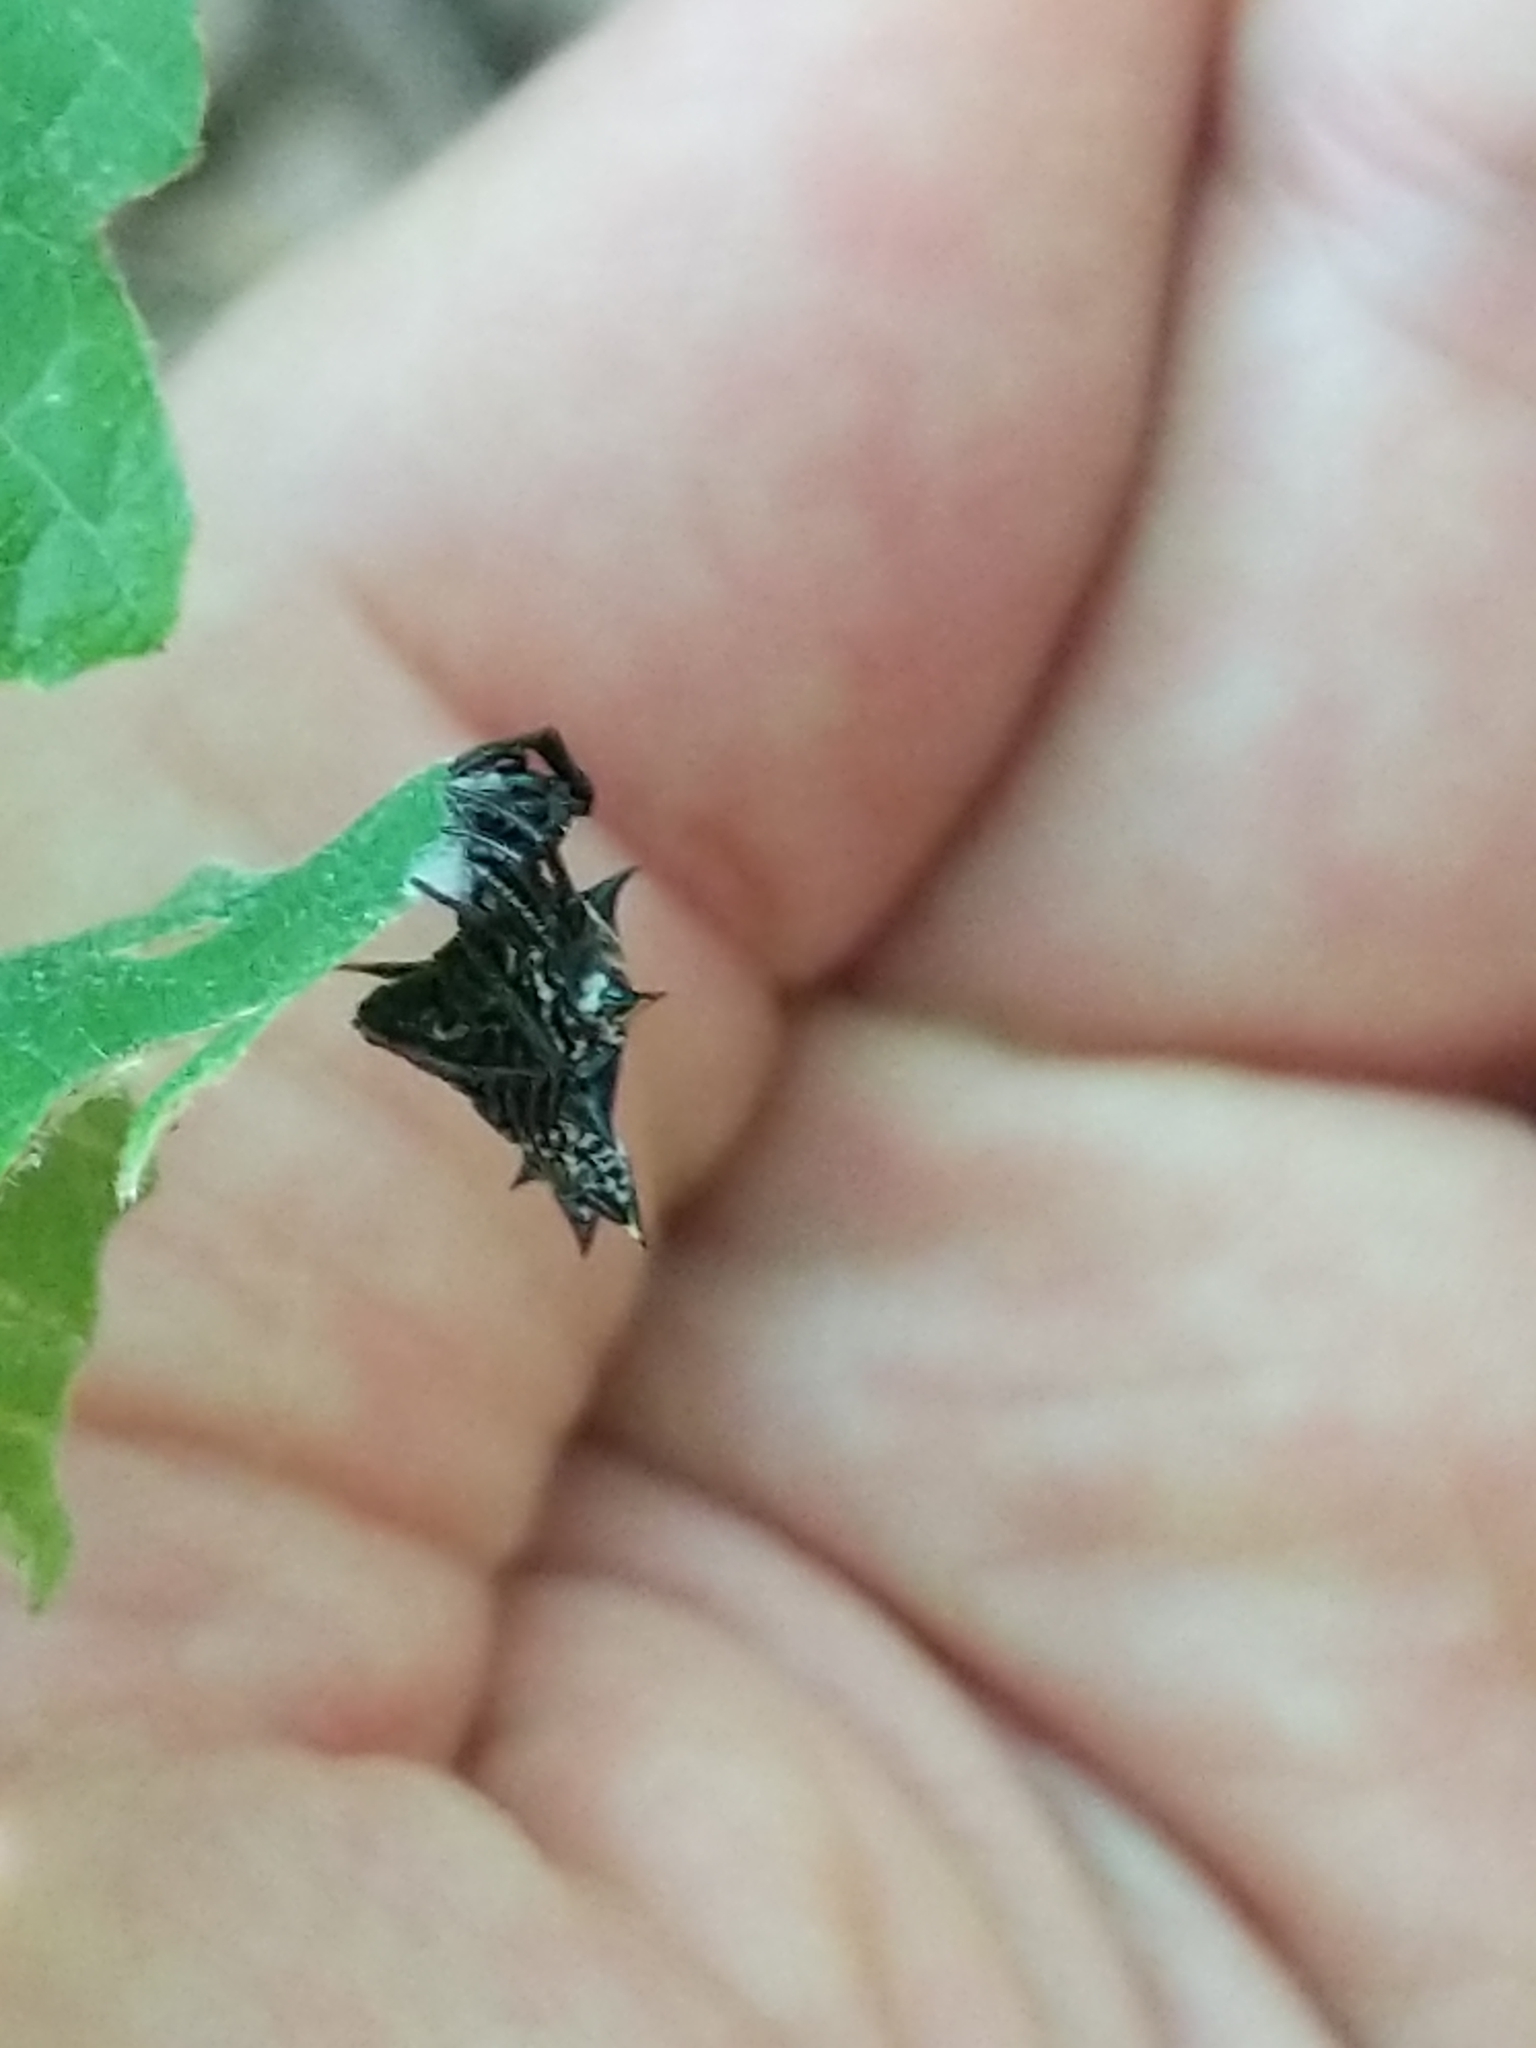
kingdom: Animalia
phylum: Arthropoda
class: Arachnida
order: Araneae
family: Araneidae
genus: Micrathena
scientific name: Micrathena gracilis
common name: Orb weavers
